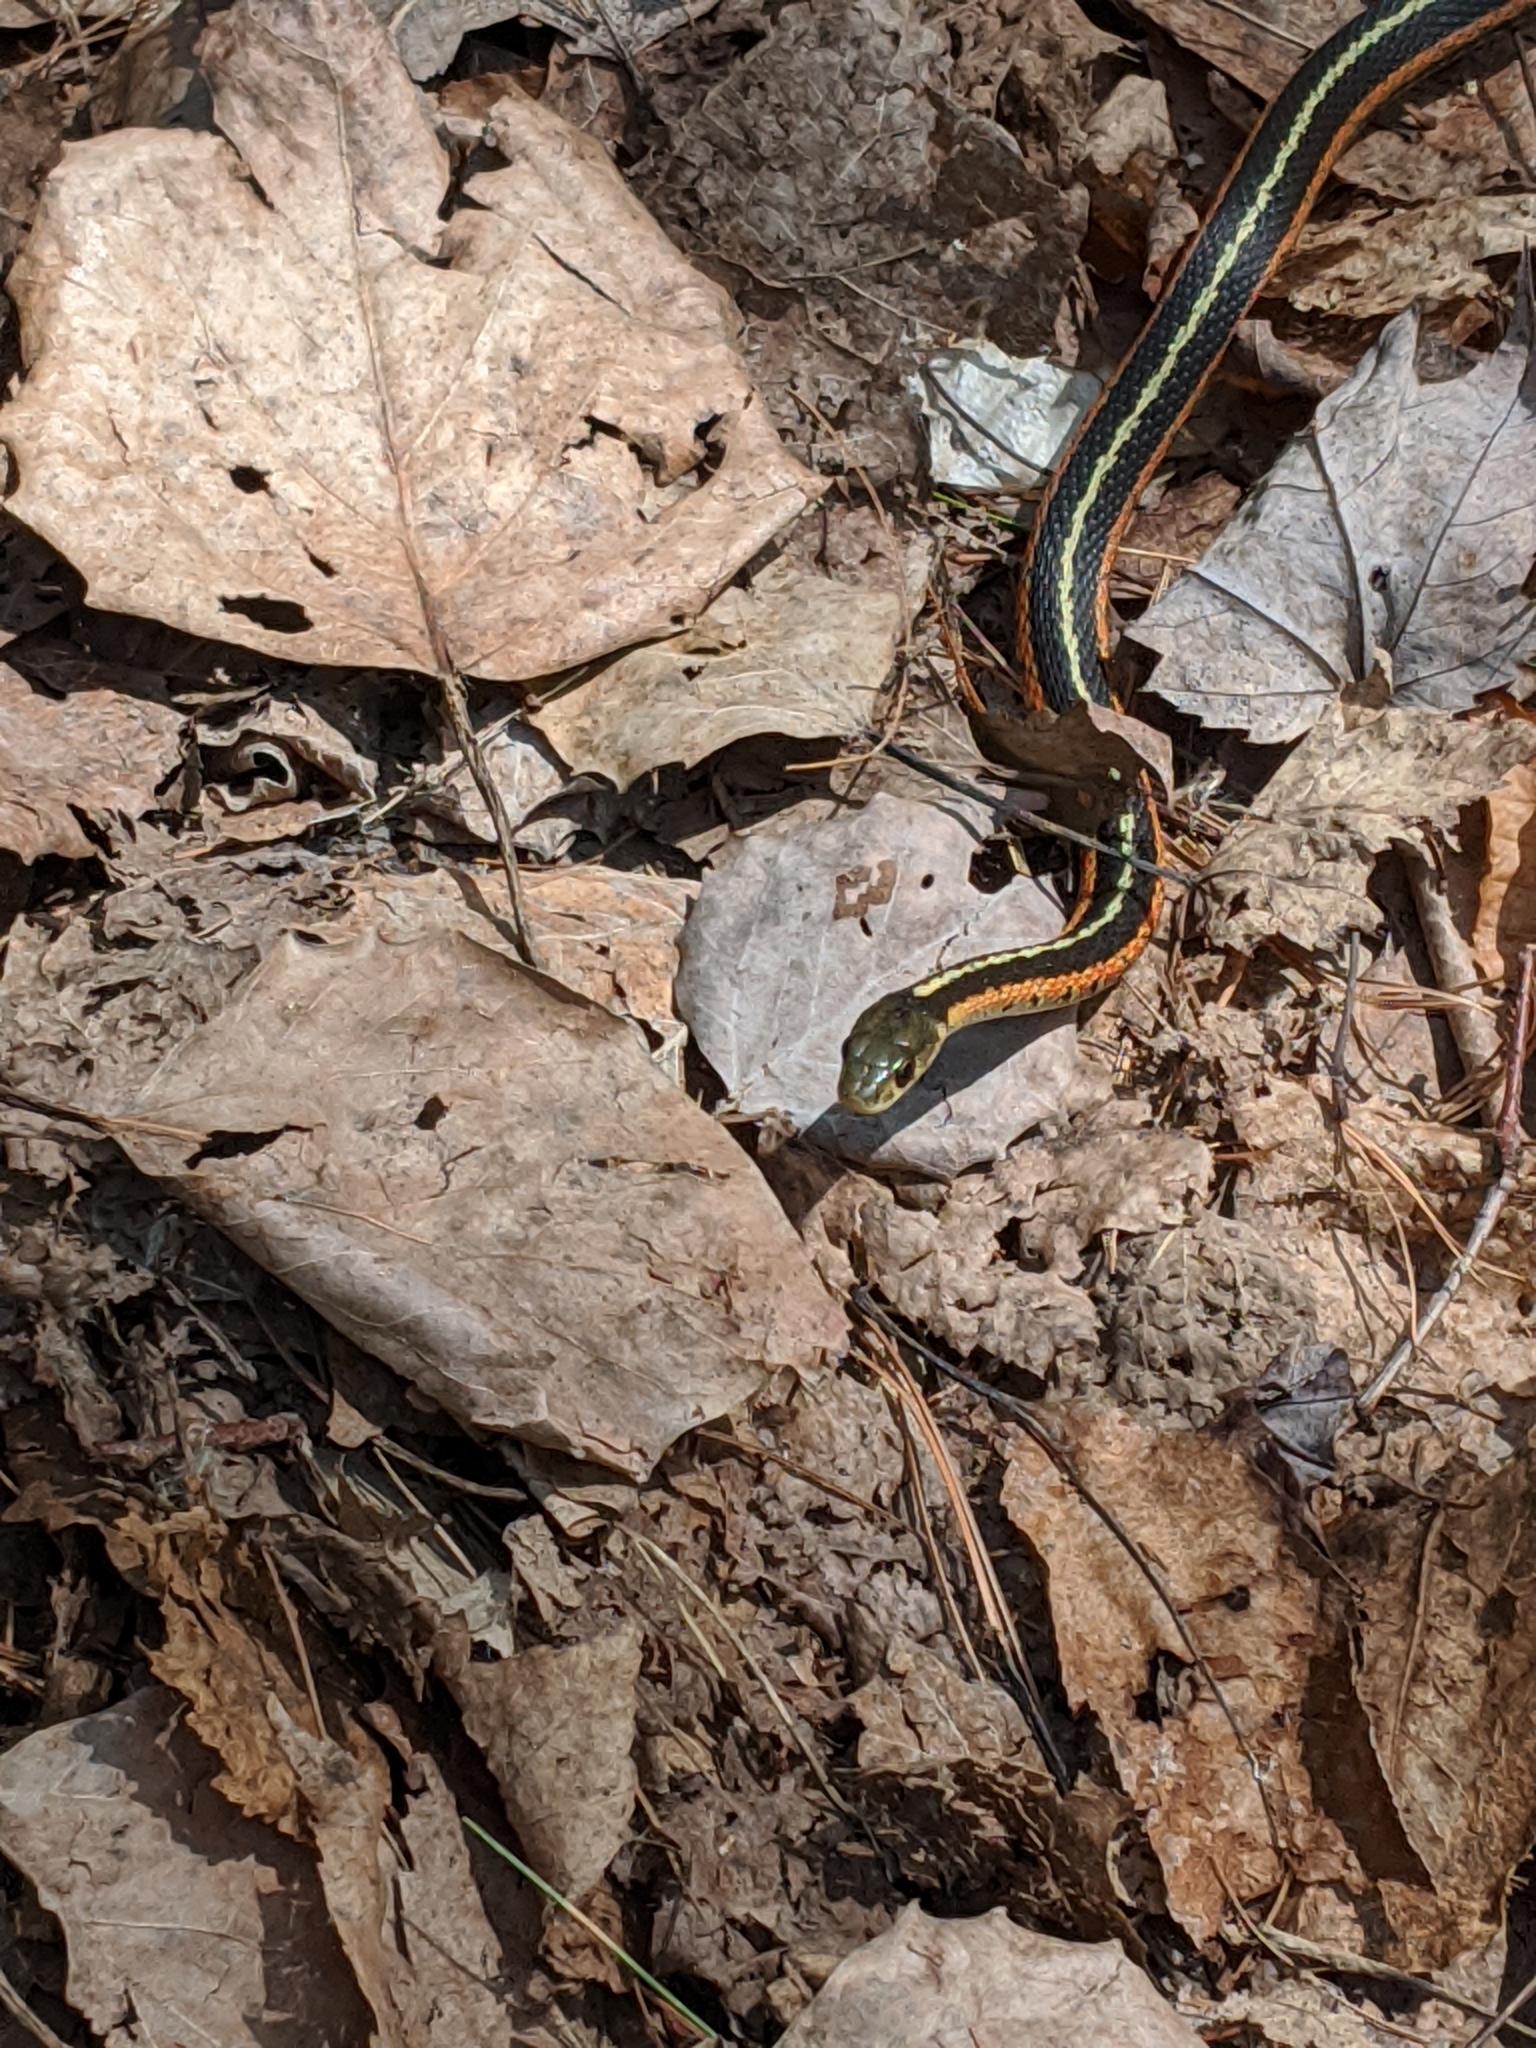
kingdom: Animalia
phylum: Chordata
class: Squamata
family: Colubridae
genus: Thamnophis
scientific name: Thamnophis sirtalis
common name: Common garter snake
